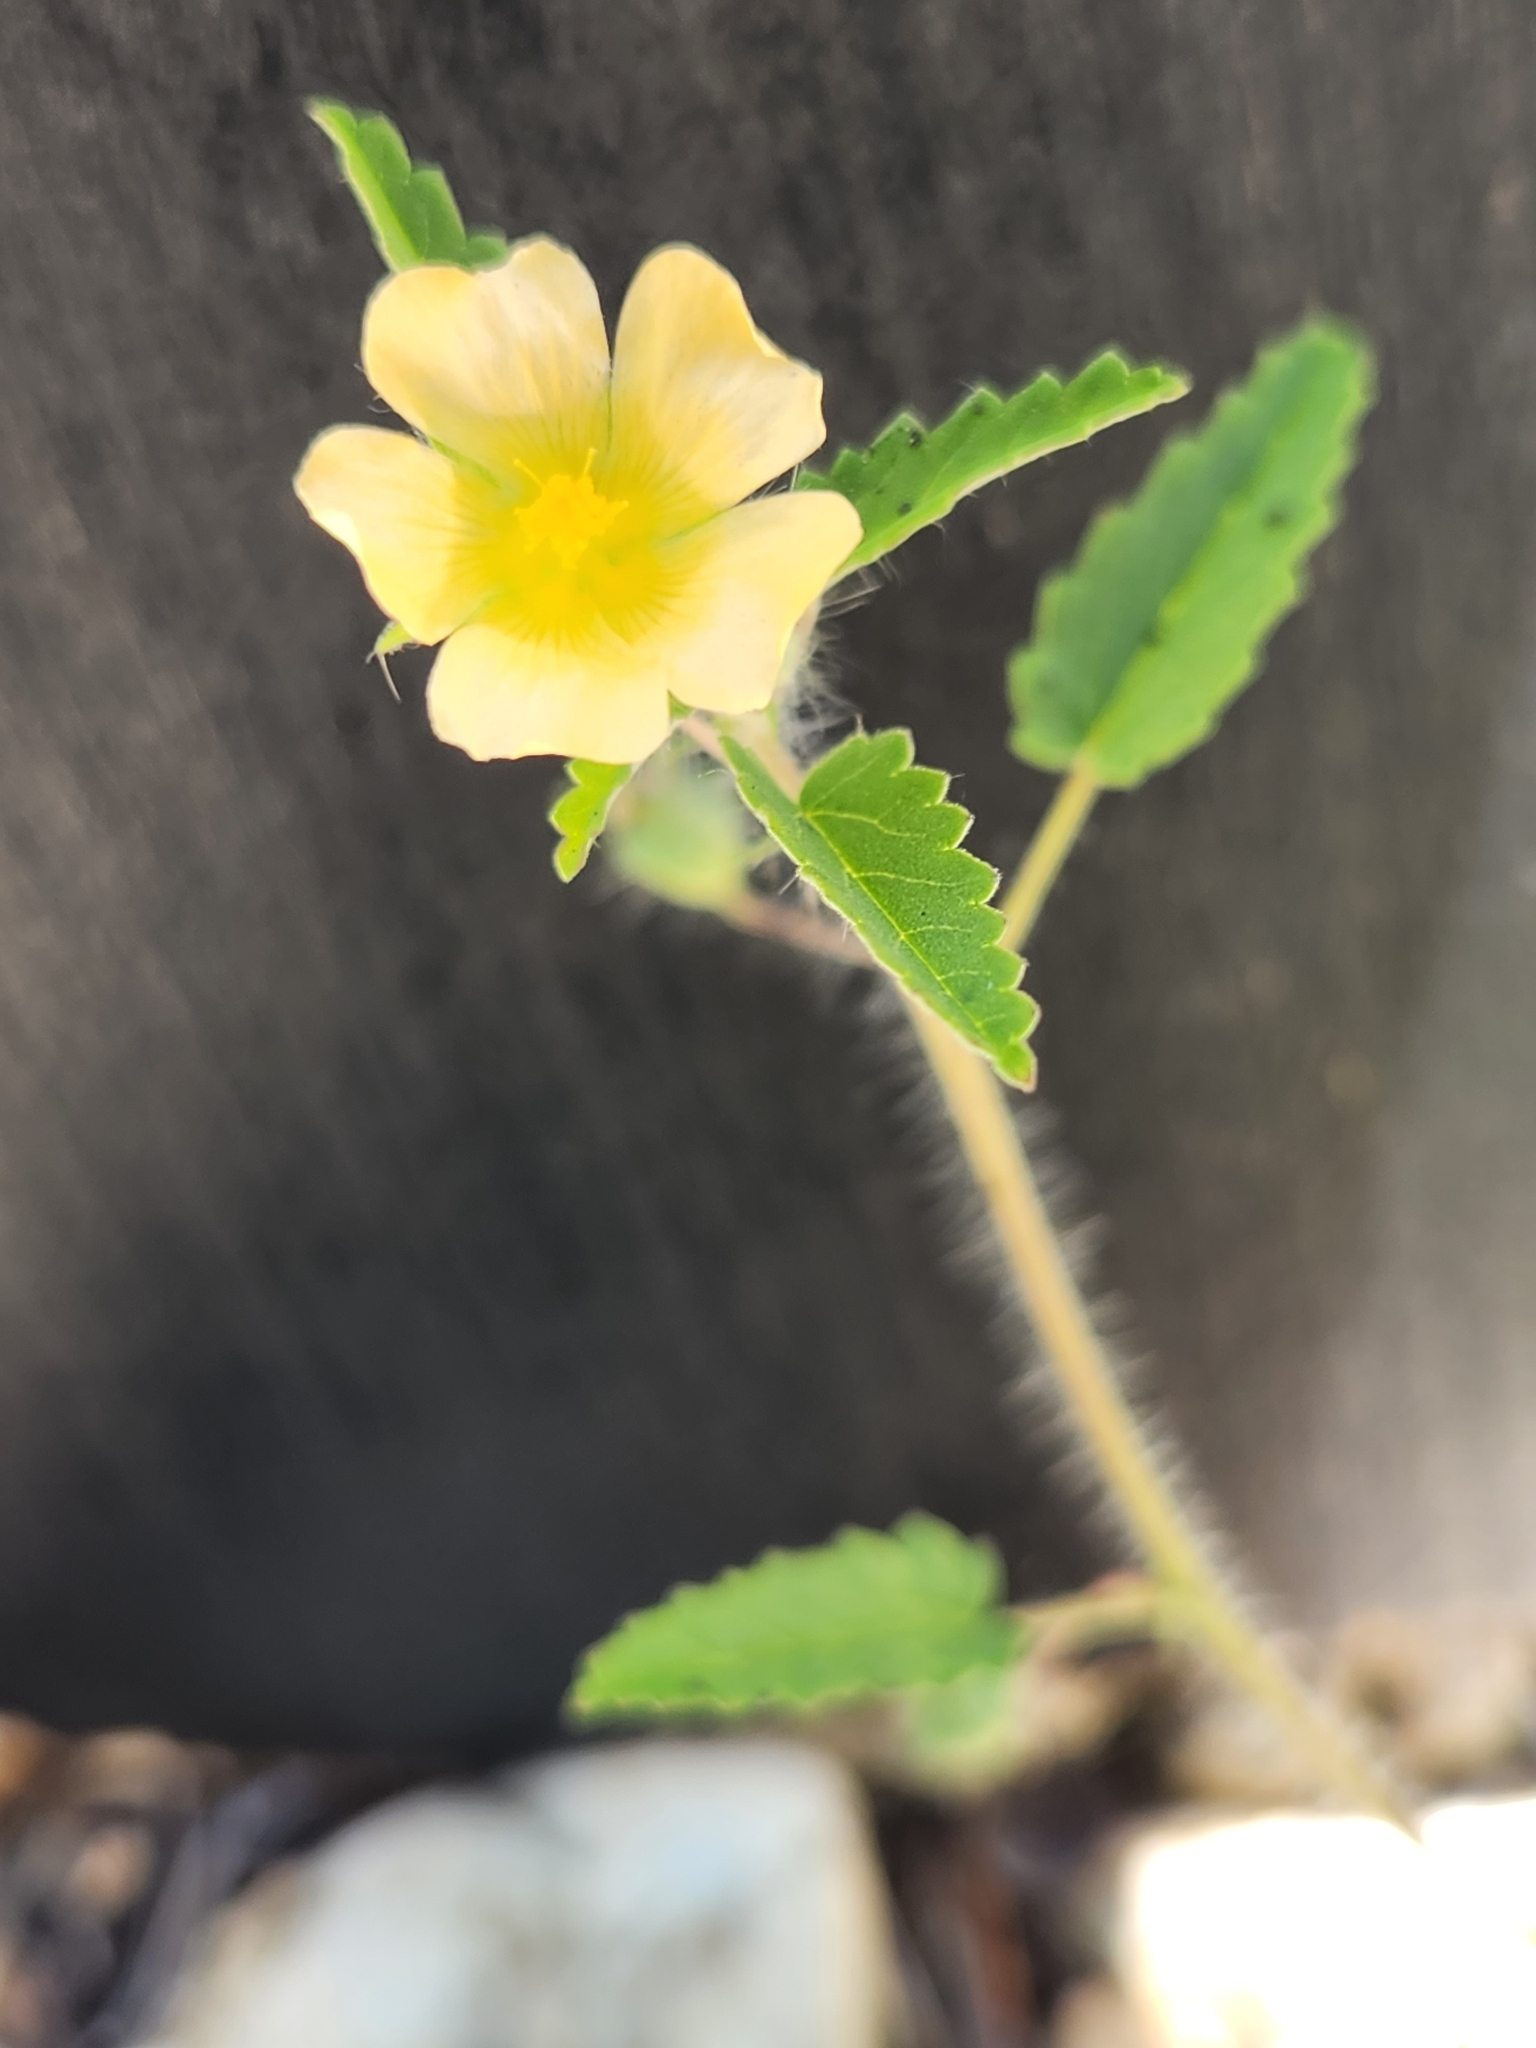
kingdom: Plantae
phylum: Tracheophyta
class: Magnoliopsida
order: Malvales
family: Malvaceae
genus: Sida
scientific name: Sida abutilifolia
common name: Spreading fanpetals
